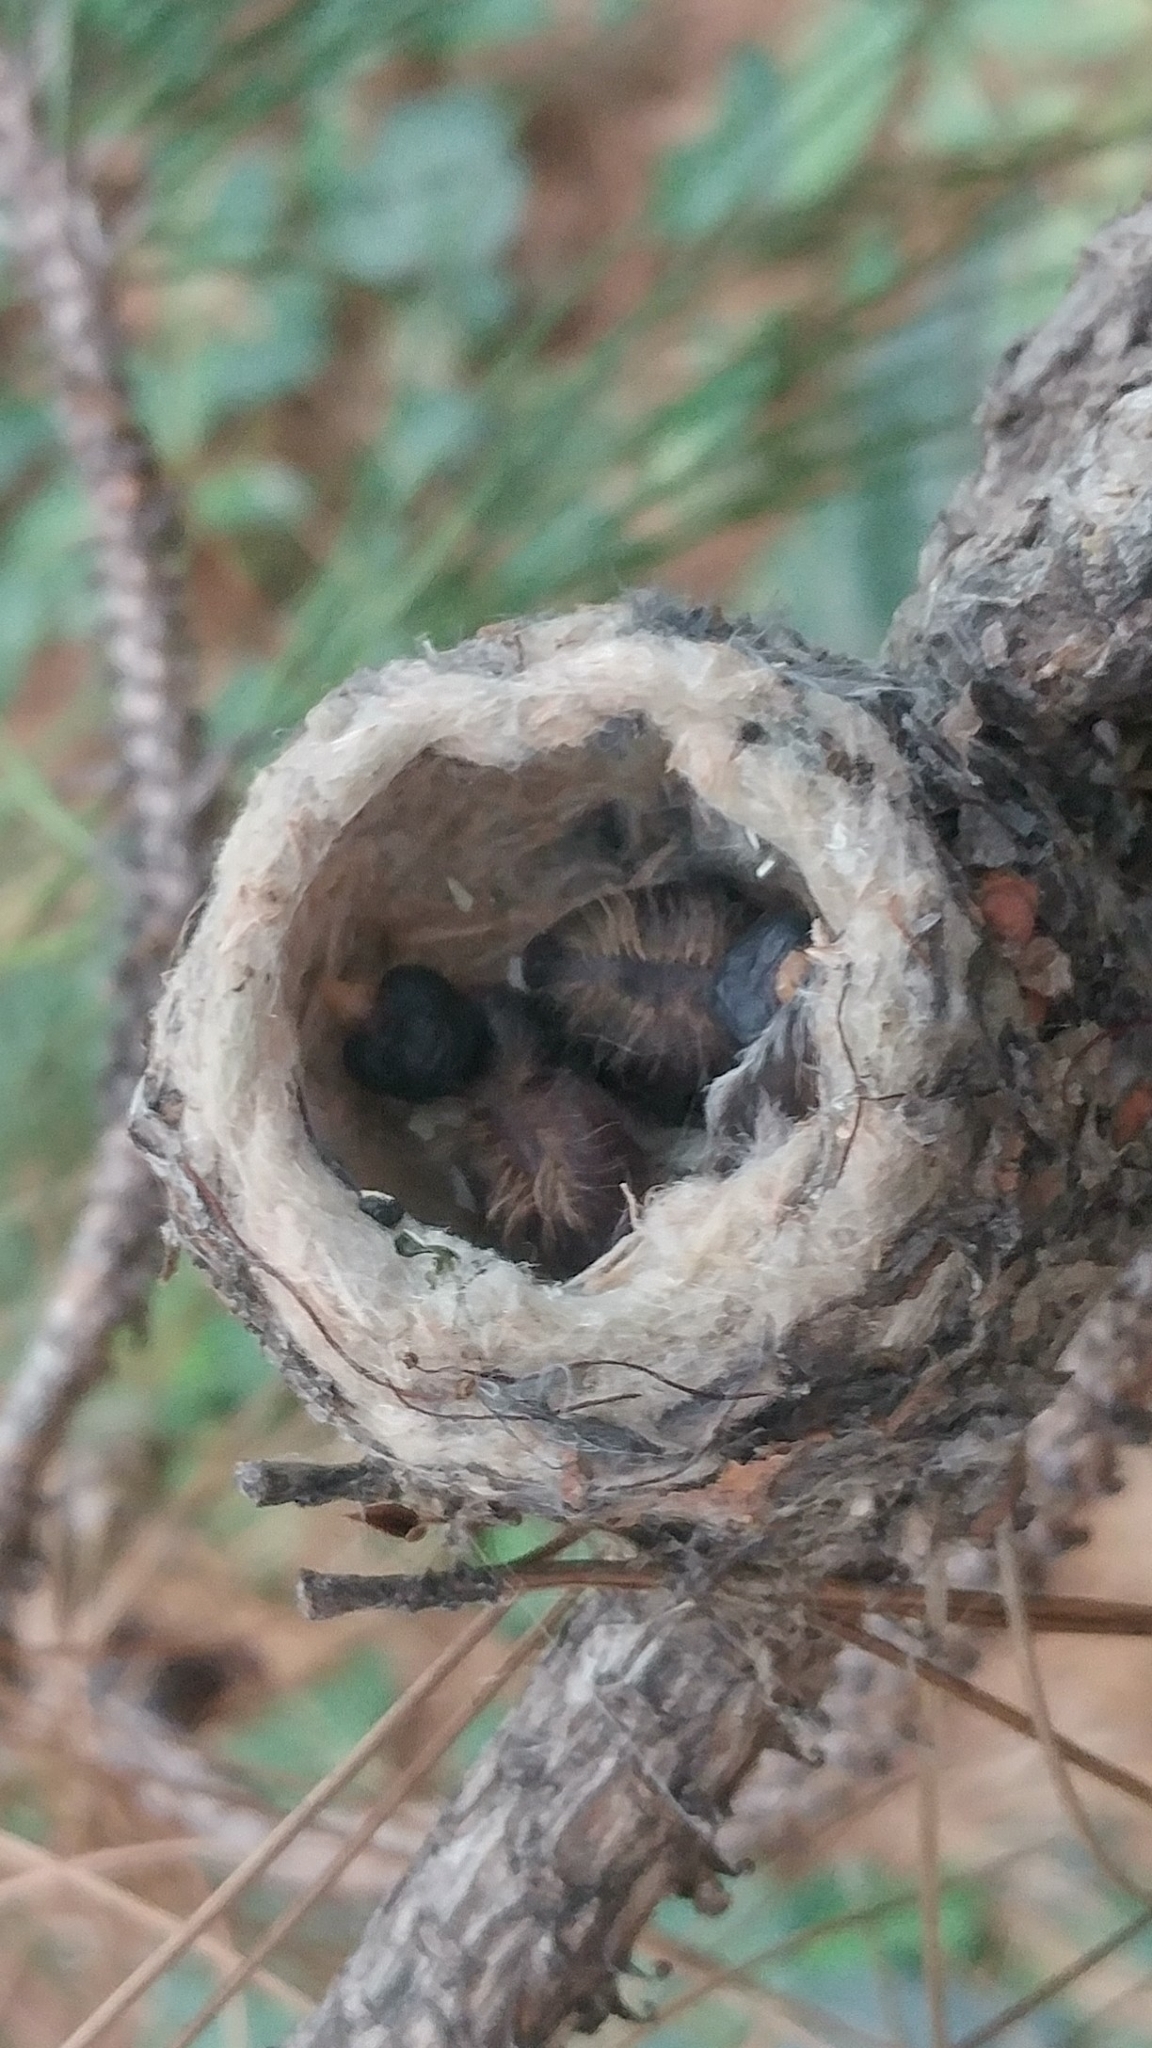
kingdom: Animalia
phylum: Chordata
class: Aves
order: Apodiformes
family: Trochilidae
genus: Calypte
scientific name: Calypte anna
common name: Anna's hummingbird
